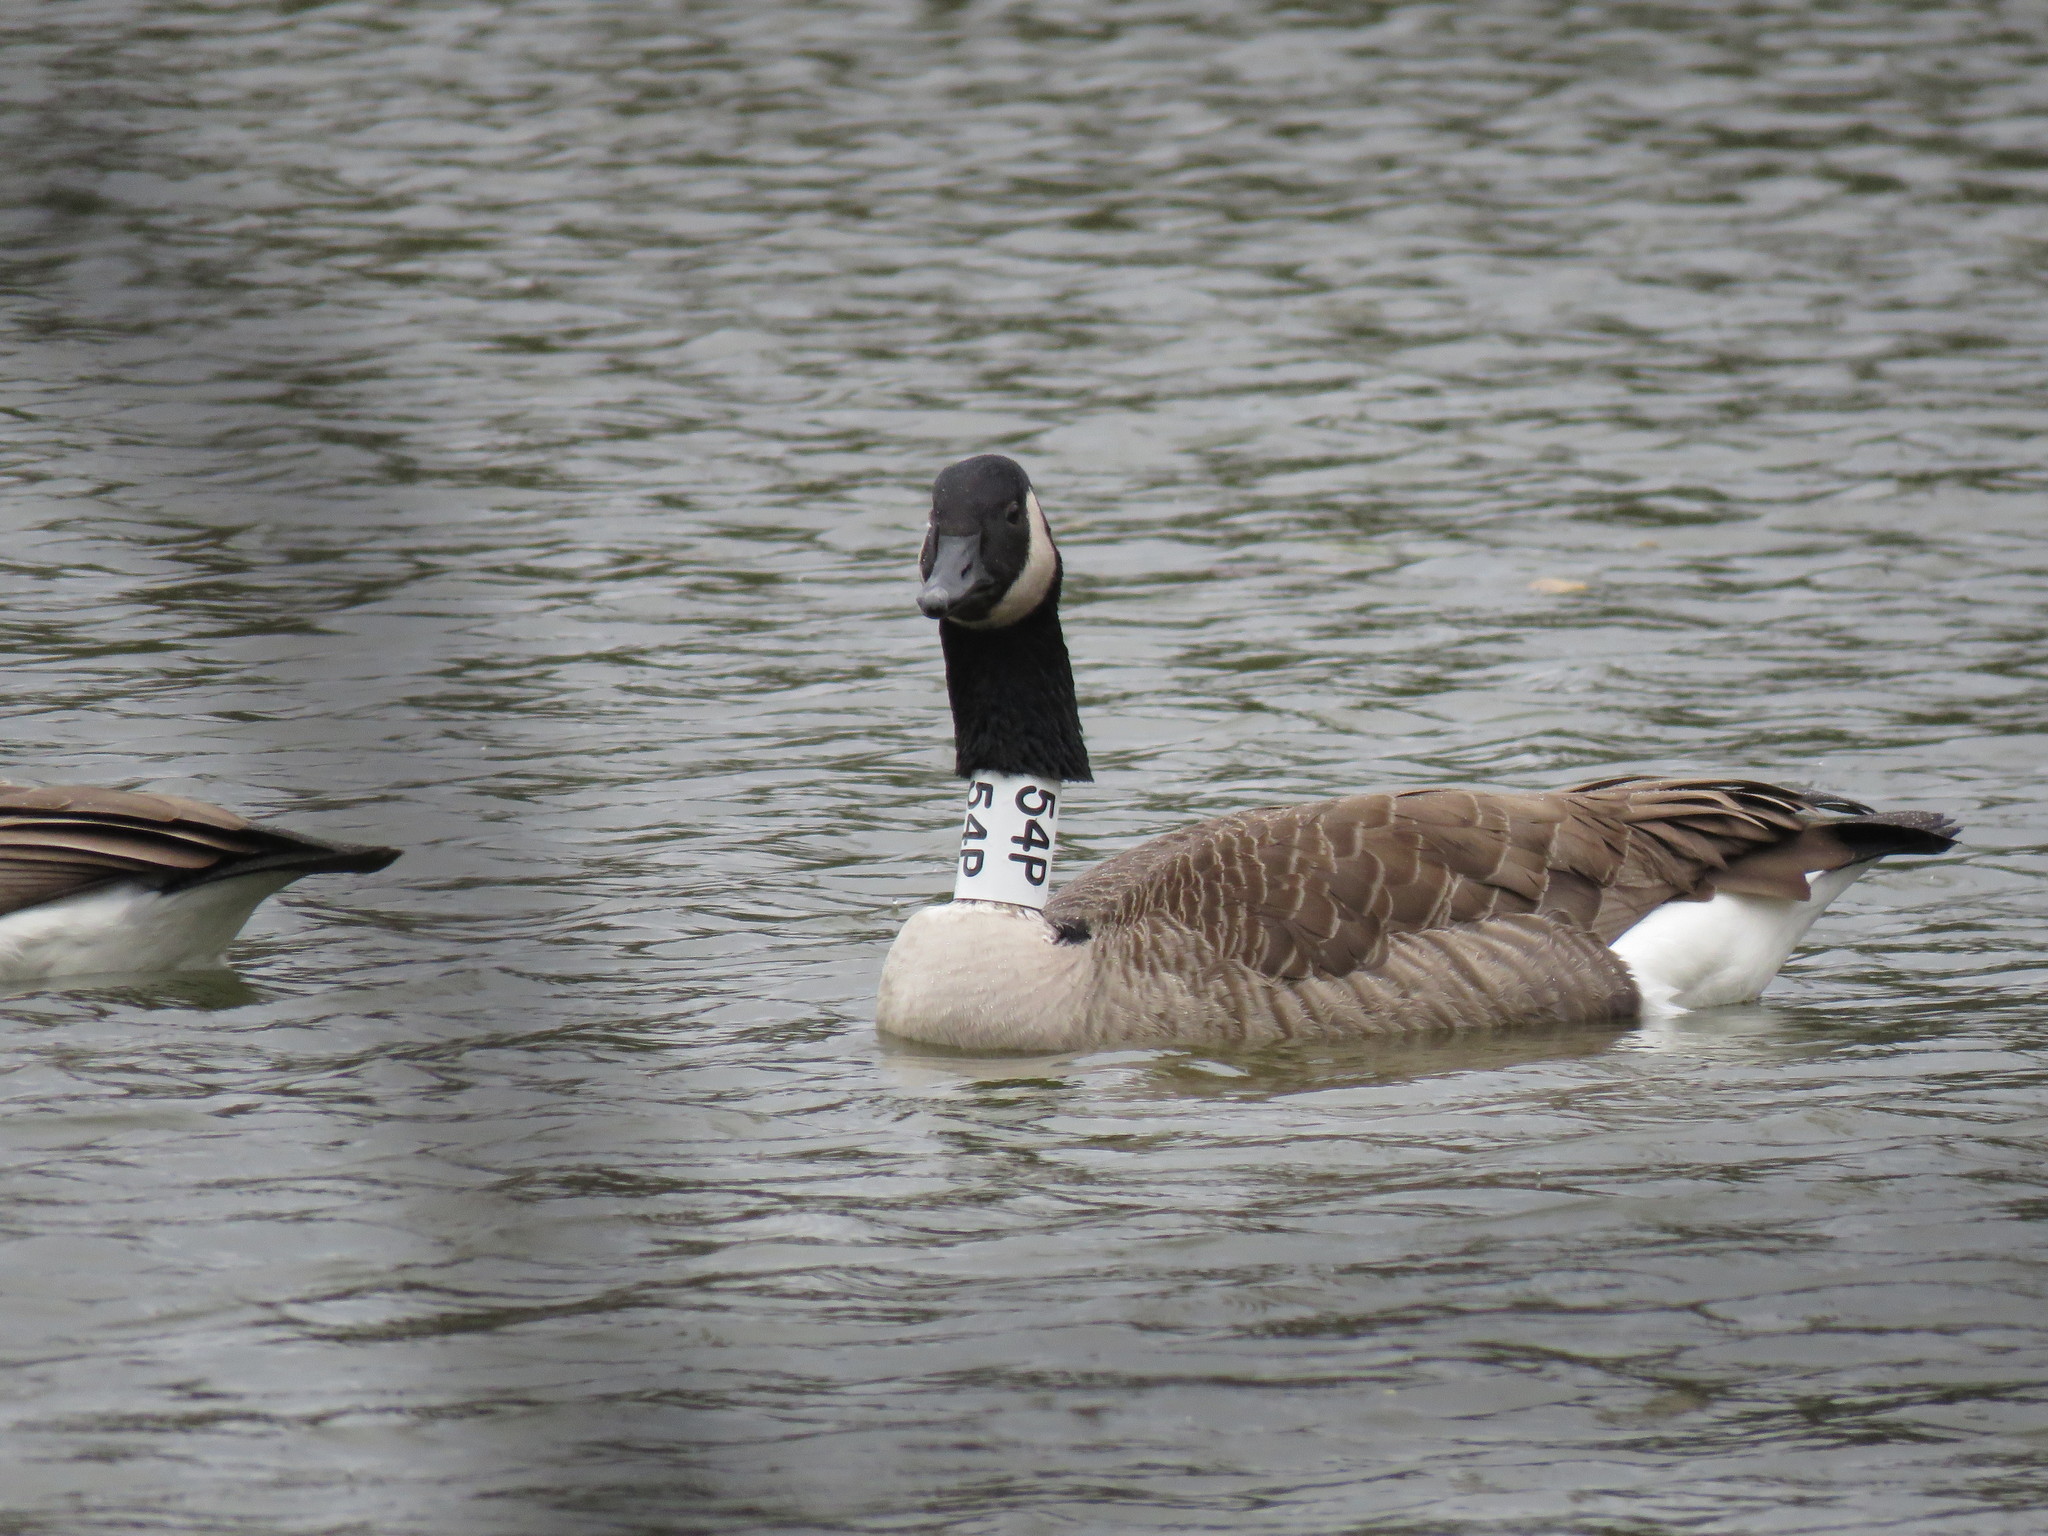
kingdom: Animalia
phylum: Chordata
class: Aves
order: Anseriformes
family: Anatidae
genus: Branta
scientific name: Branta canadensis
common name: Canada goose
